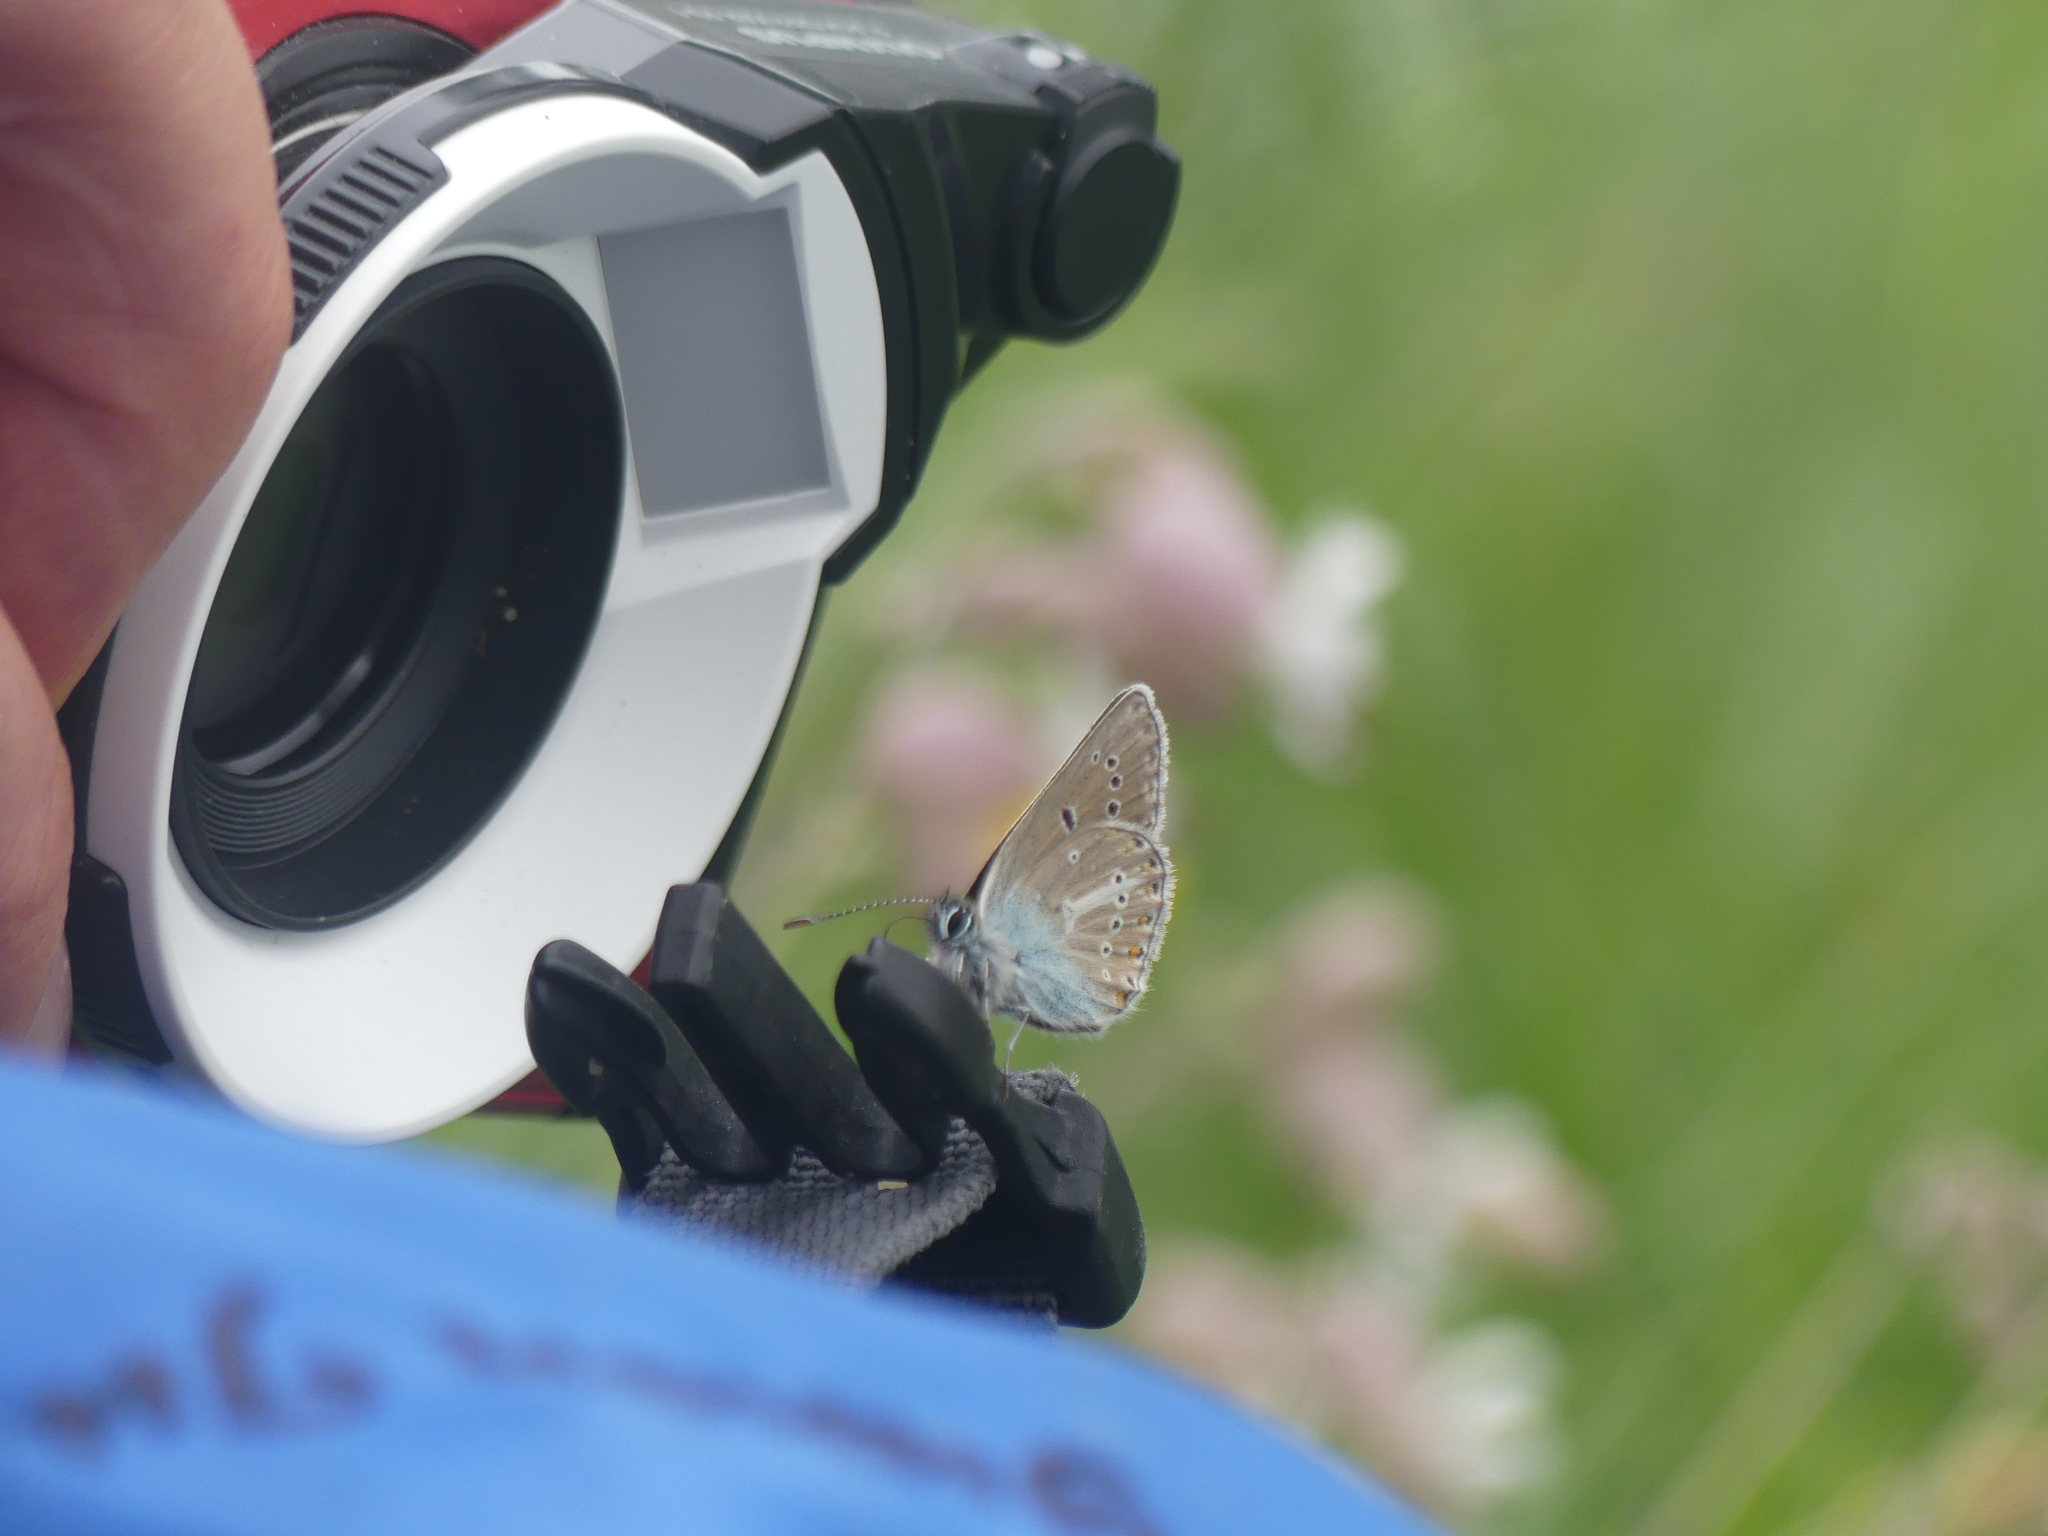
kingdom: Animalia
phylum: Arthropoda
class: Insecta
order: Lepidoptera
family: Lycaenidae
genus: Eumedonia
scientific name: Eumedonia eumedon
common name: Geranium argus
